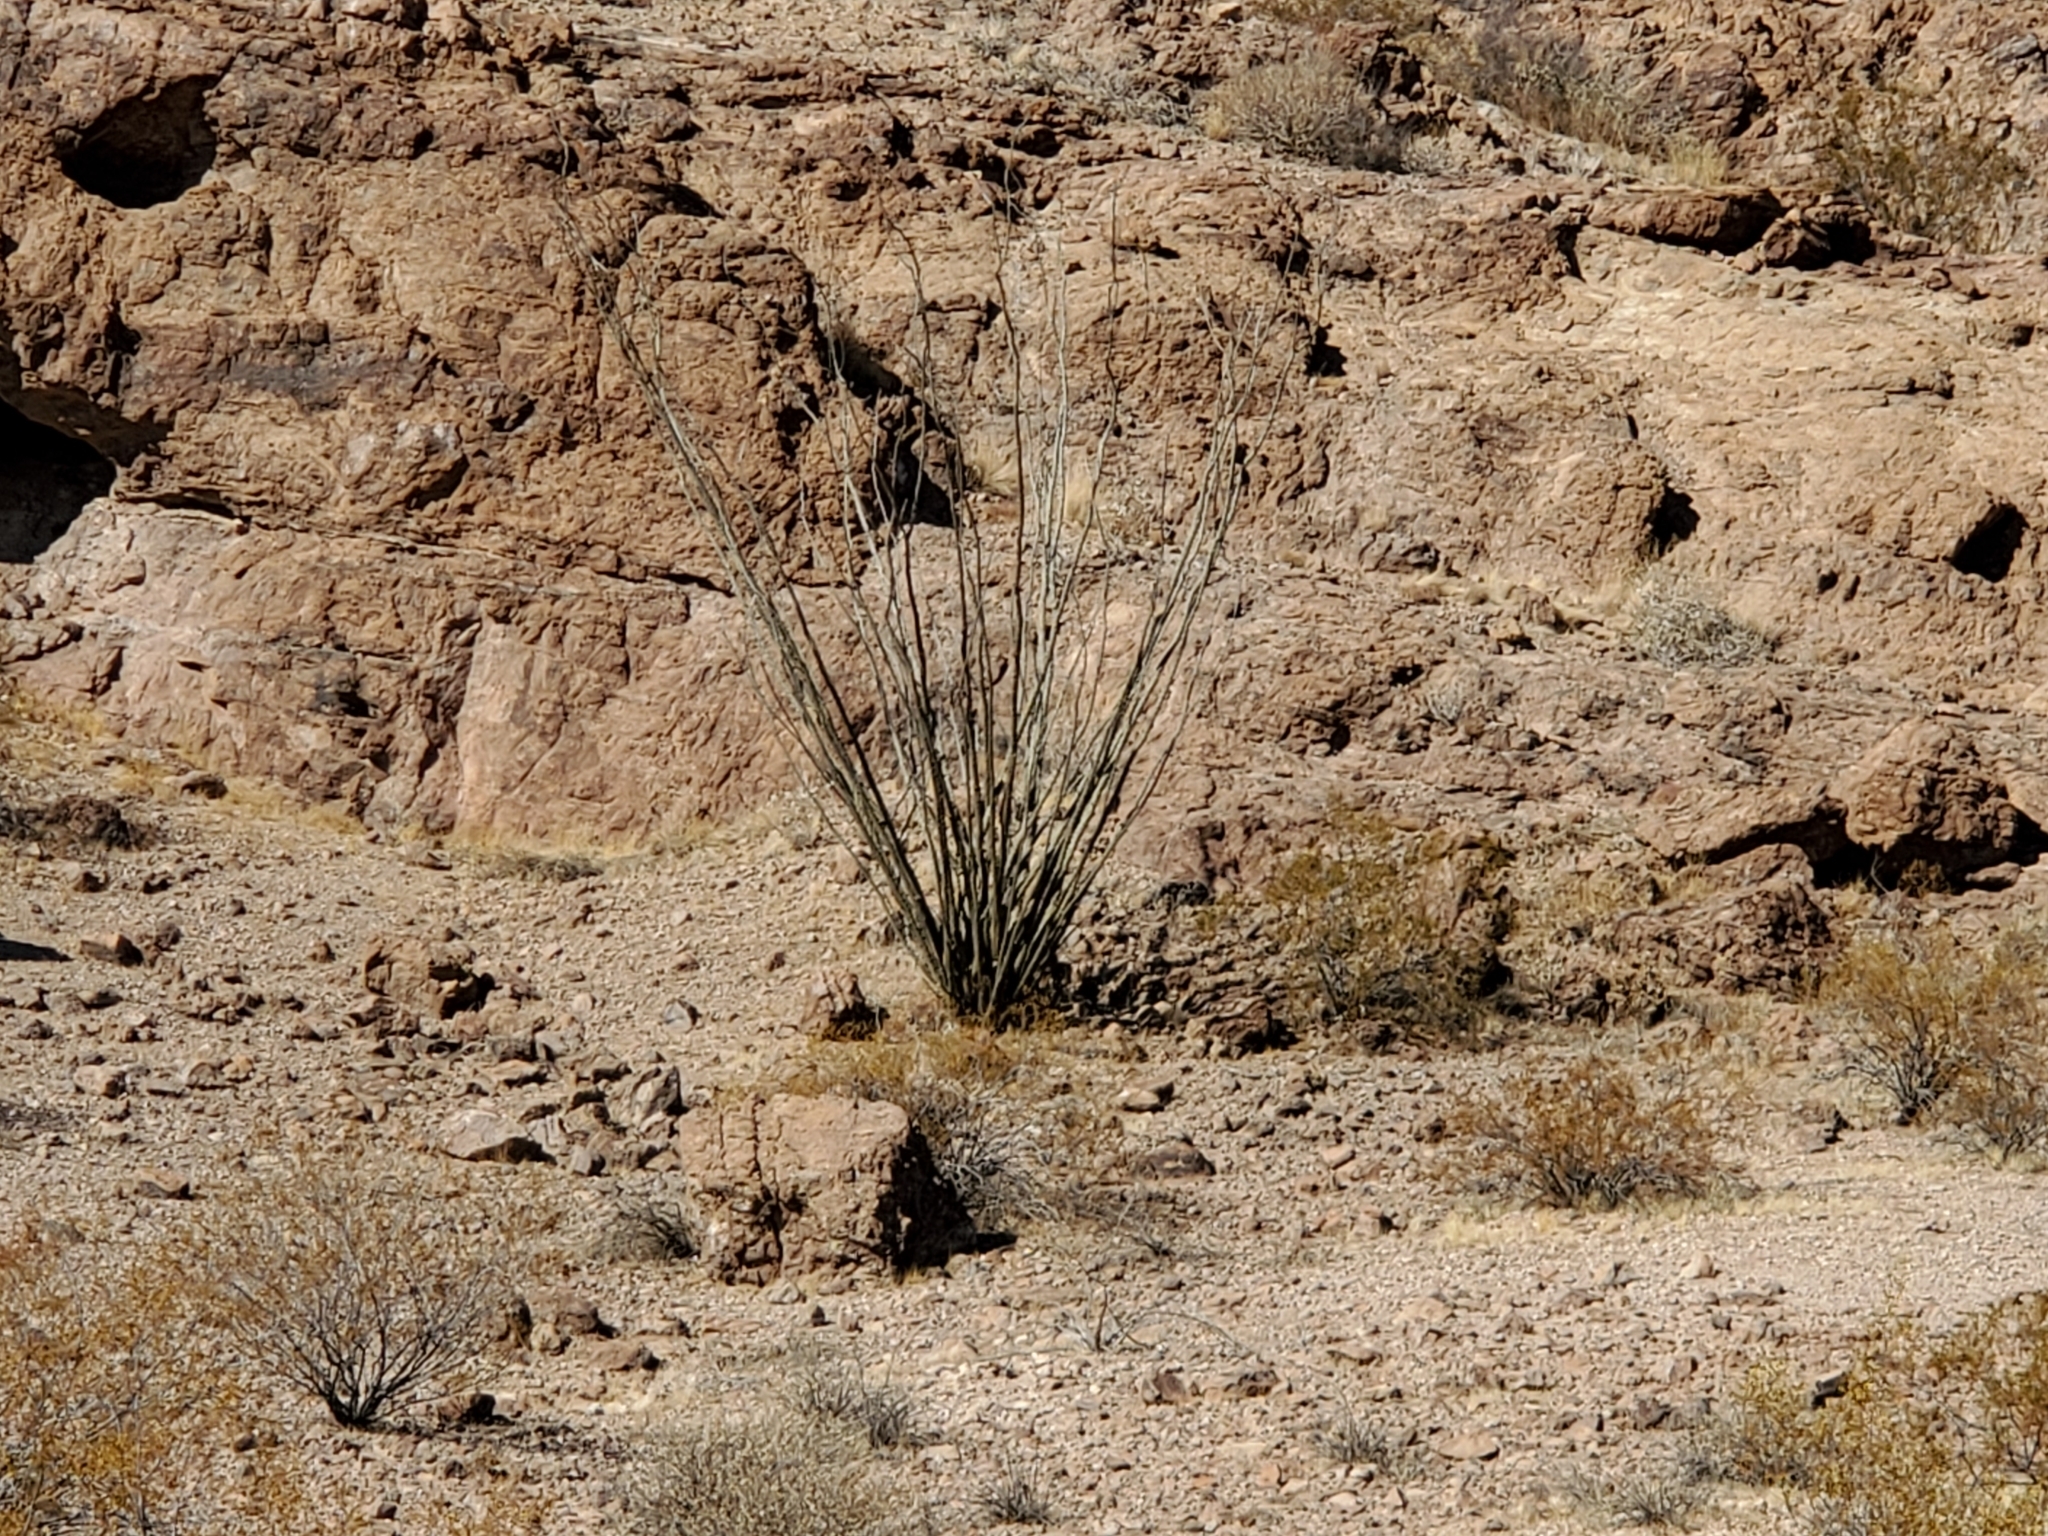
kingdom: Plantae
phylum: Tracheophyta
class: Magnoliopsida
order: Ericales
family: Fouquieriaceae
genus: Fouquieria
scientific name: Fouquieria splendens
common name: Vine-cactus
